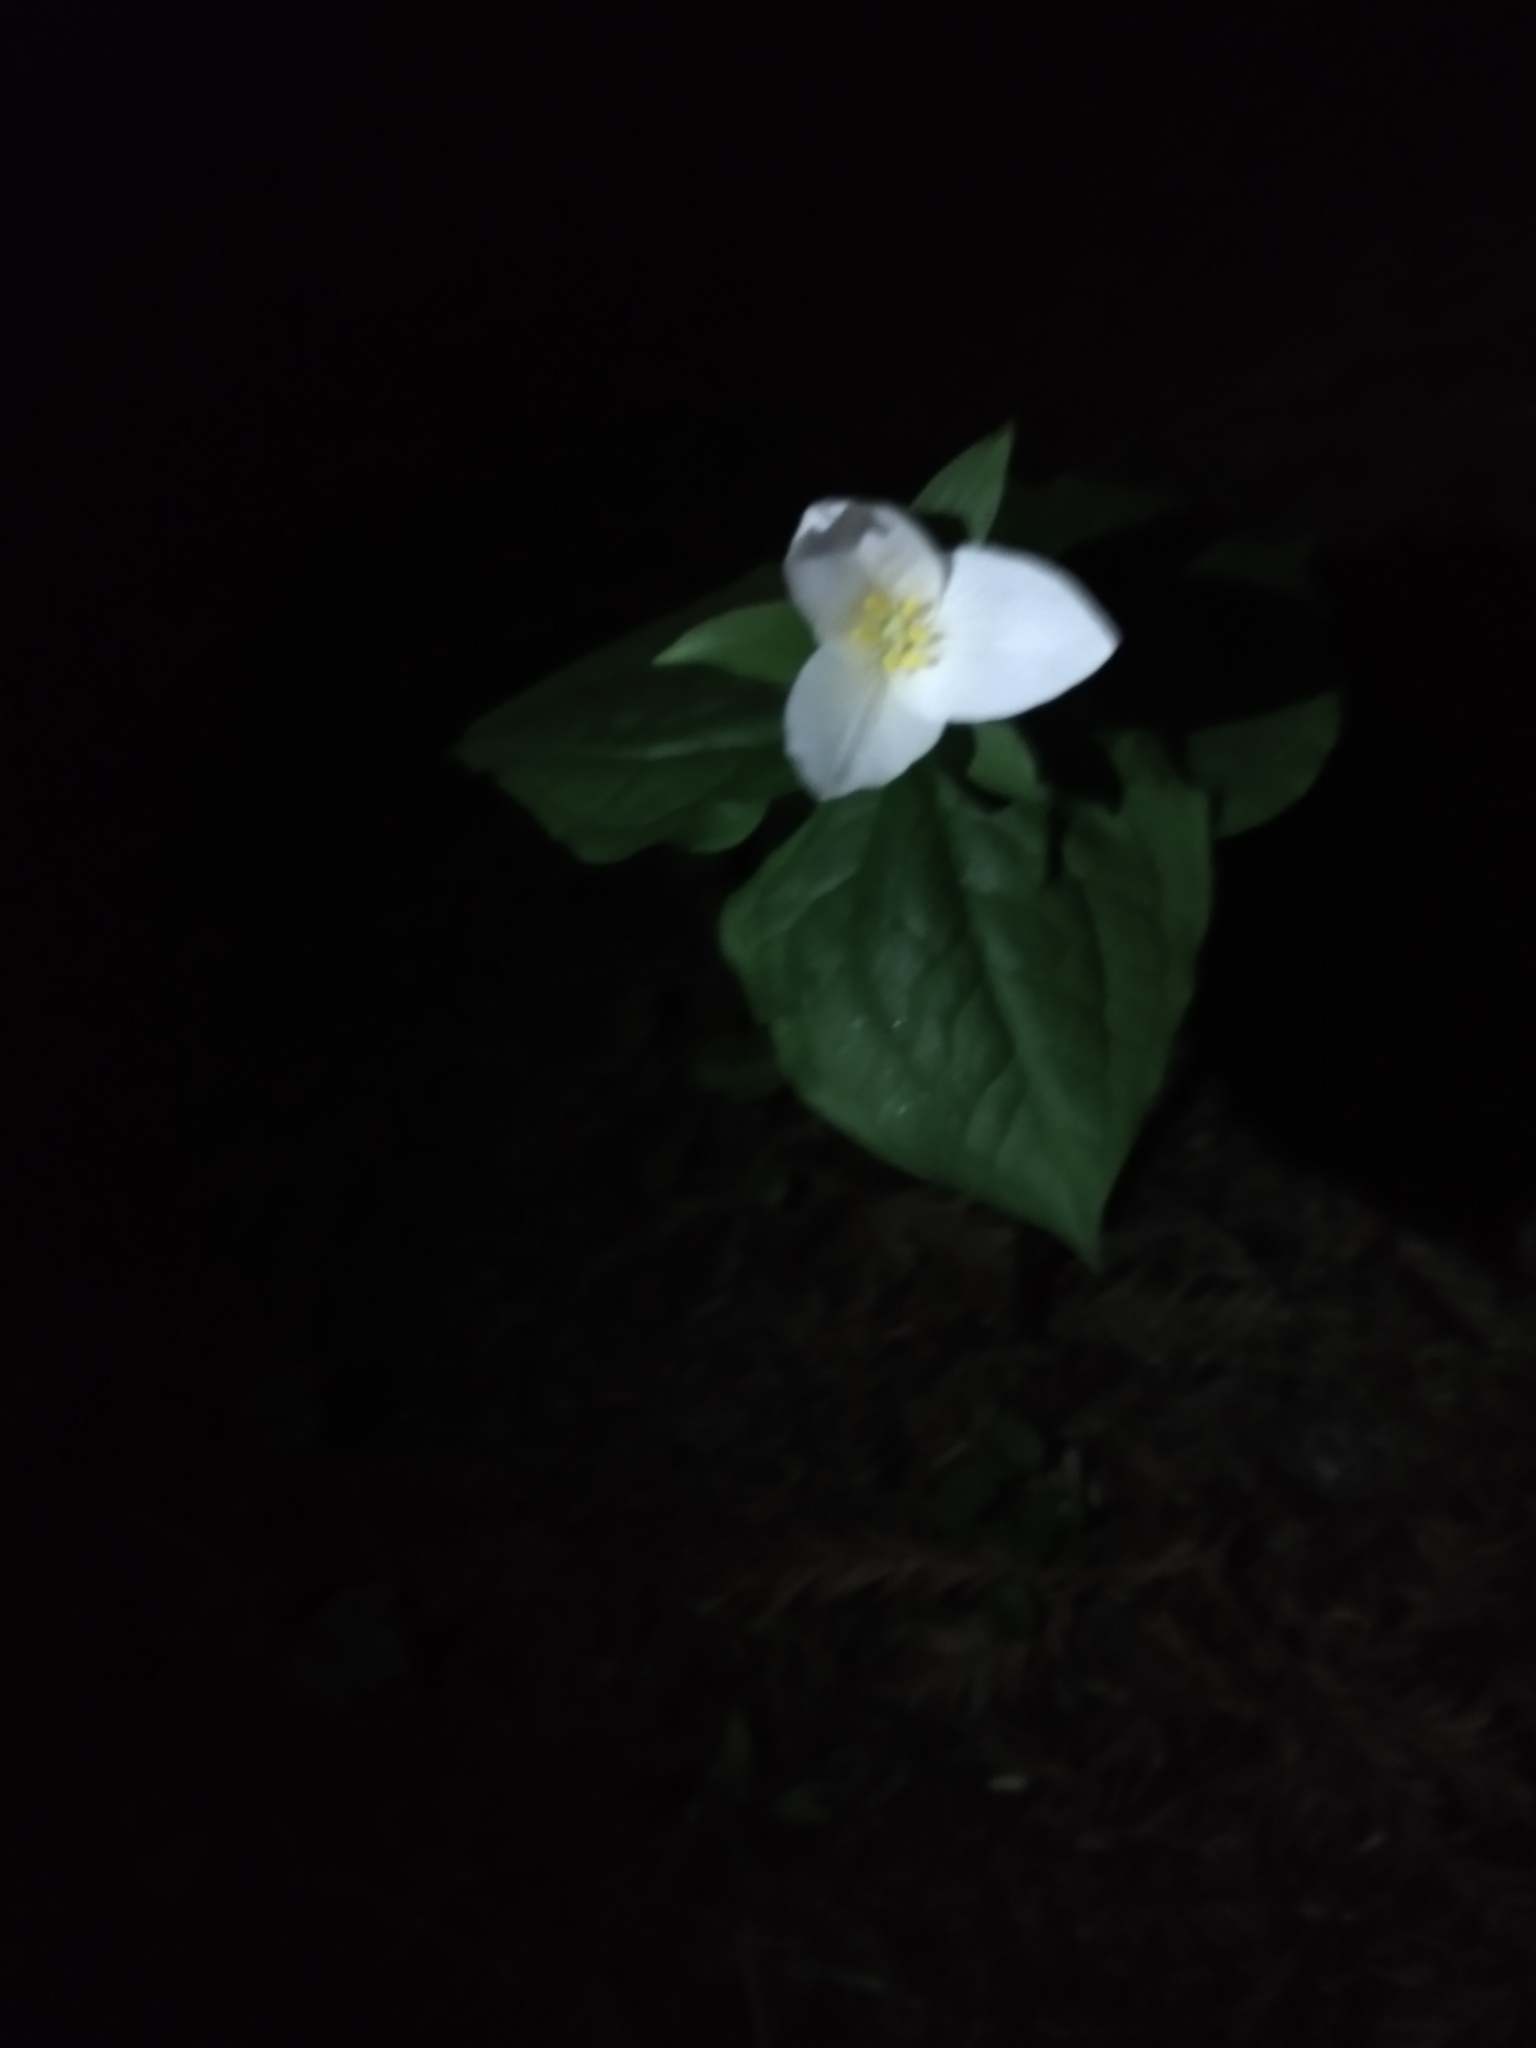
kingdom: Plantae
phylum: Tracheophyta
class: Liliopsida
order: Liliales
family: Melanthiaceae
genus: Trillium
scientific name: Trillium ovatum
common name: Pacific trillium
